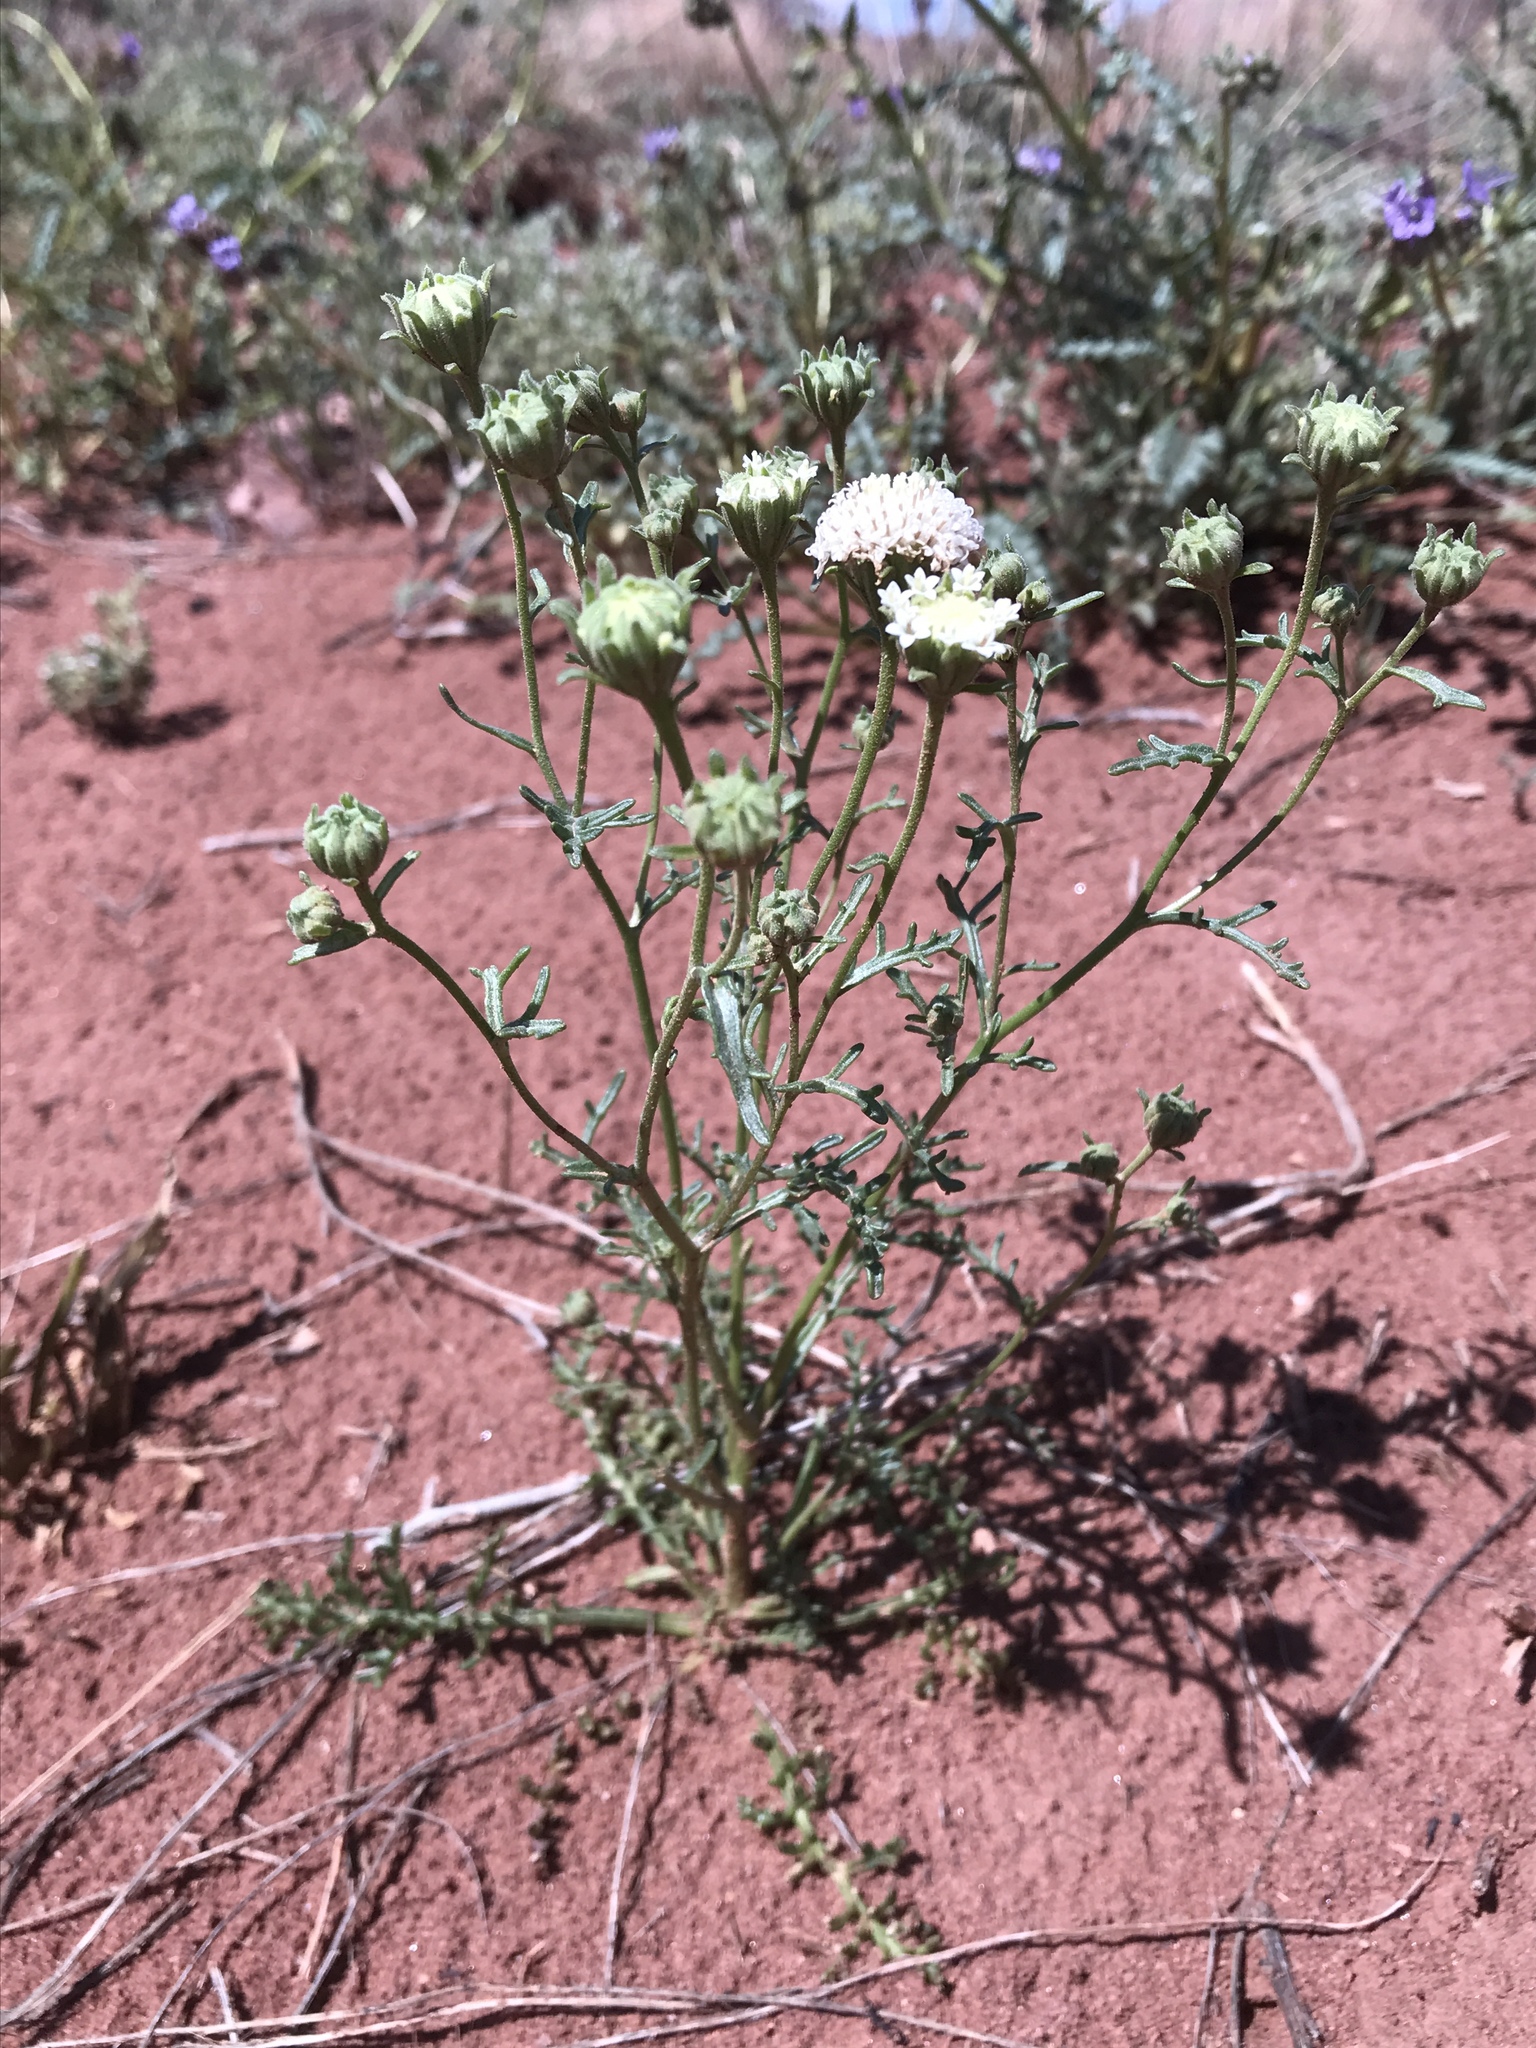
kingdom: Plantae
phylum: Tracheophyta
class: Magnoliopsida
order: Asterales
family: Asteraceae
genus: Chaenactis
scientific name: Chaenactis stevioides
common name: Desert pincushion
